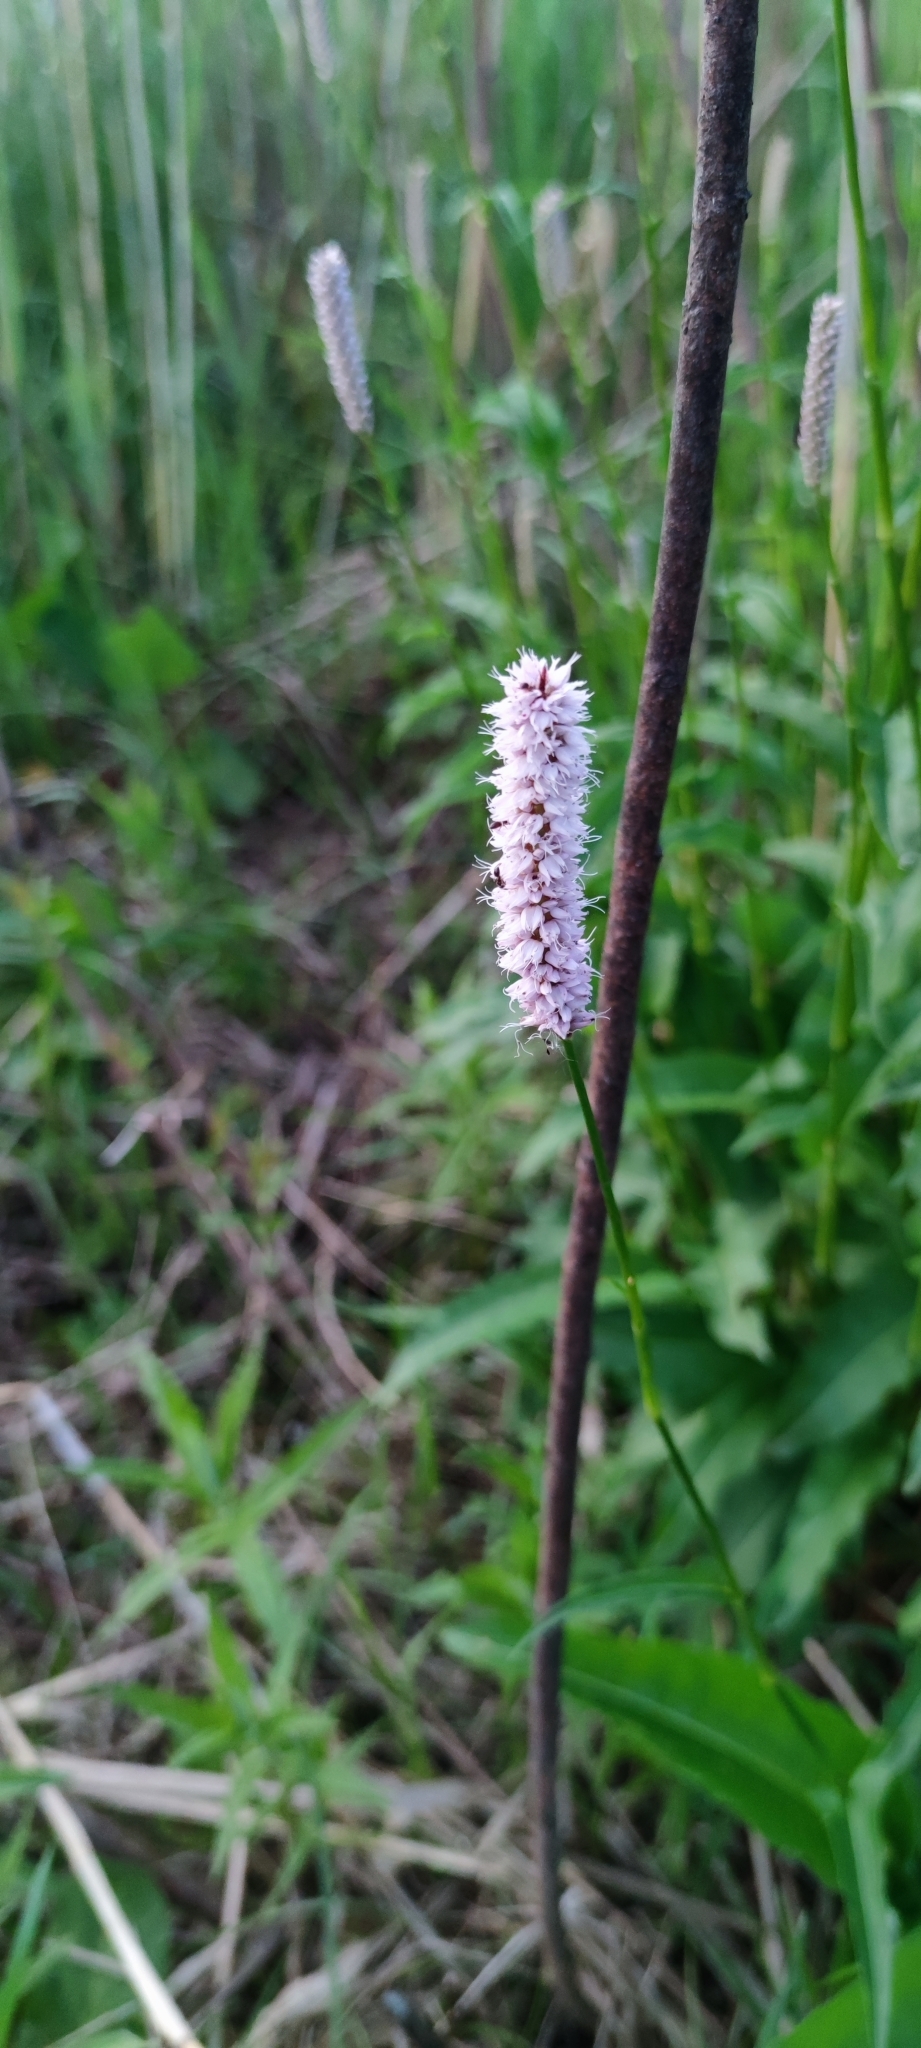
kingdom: Plantae
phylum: Tracheophyta
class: Magnoliopsida
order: Caryophyllales
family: Polygonaceae
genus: Bistorta
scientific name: Bistorta officinalis
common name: Common bistort
